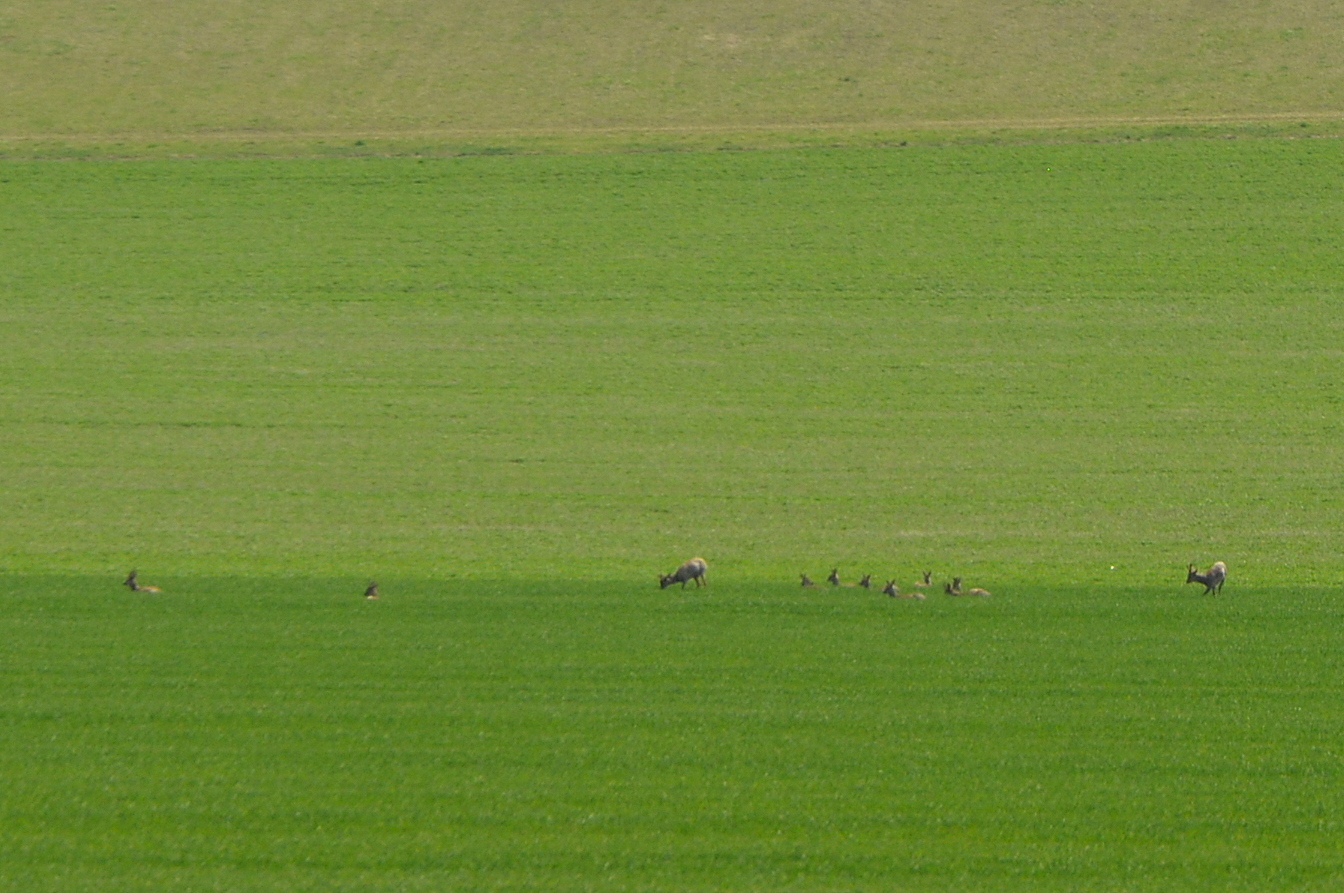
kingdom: Animalia
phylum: Chordata
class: Mammalia
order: Artiodactyla
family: Cervidae
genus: Capreolus
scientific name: Capreolus capreolus
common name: Western roe deer
